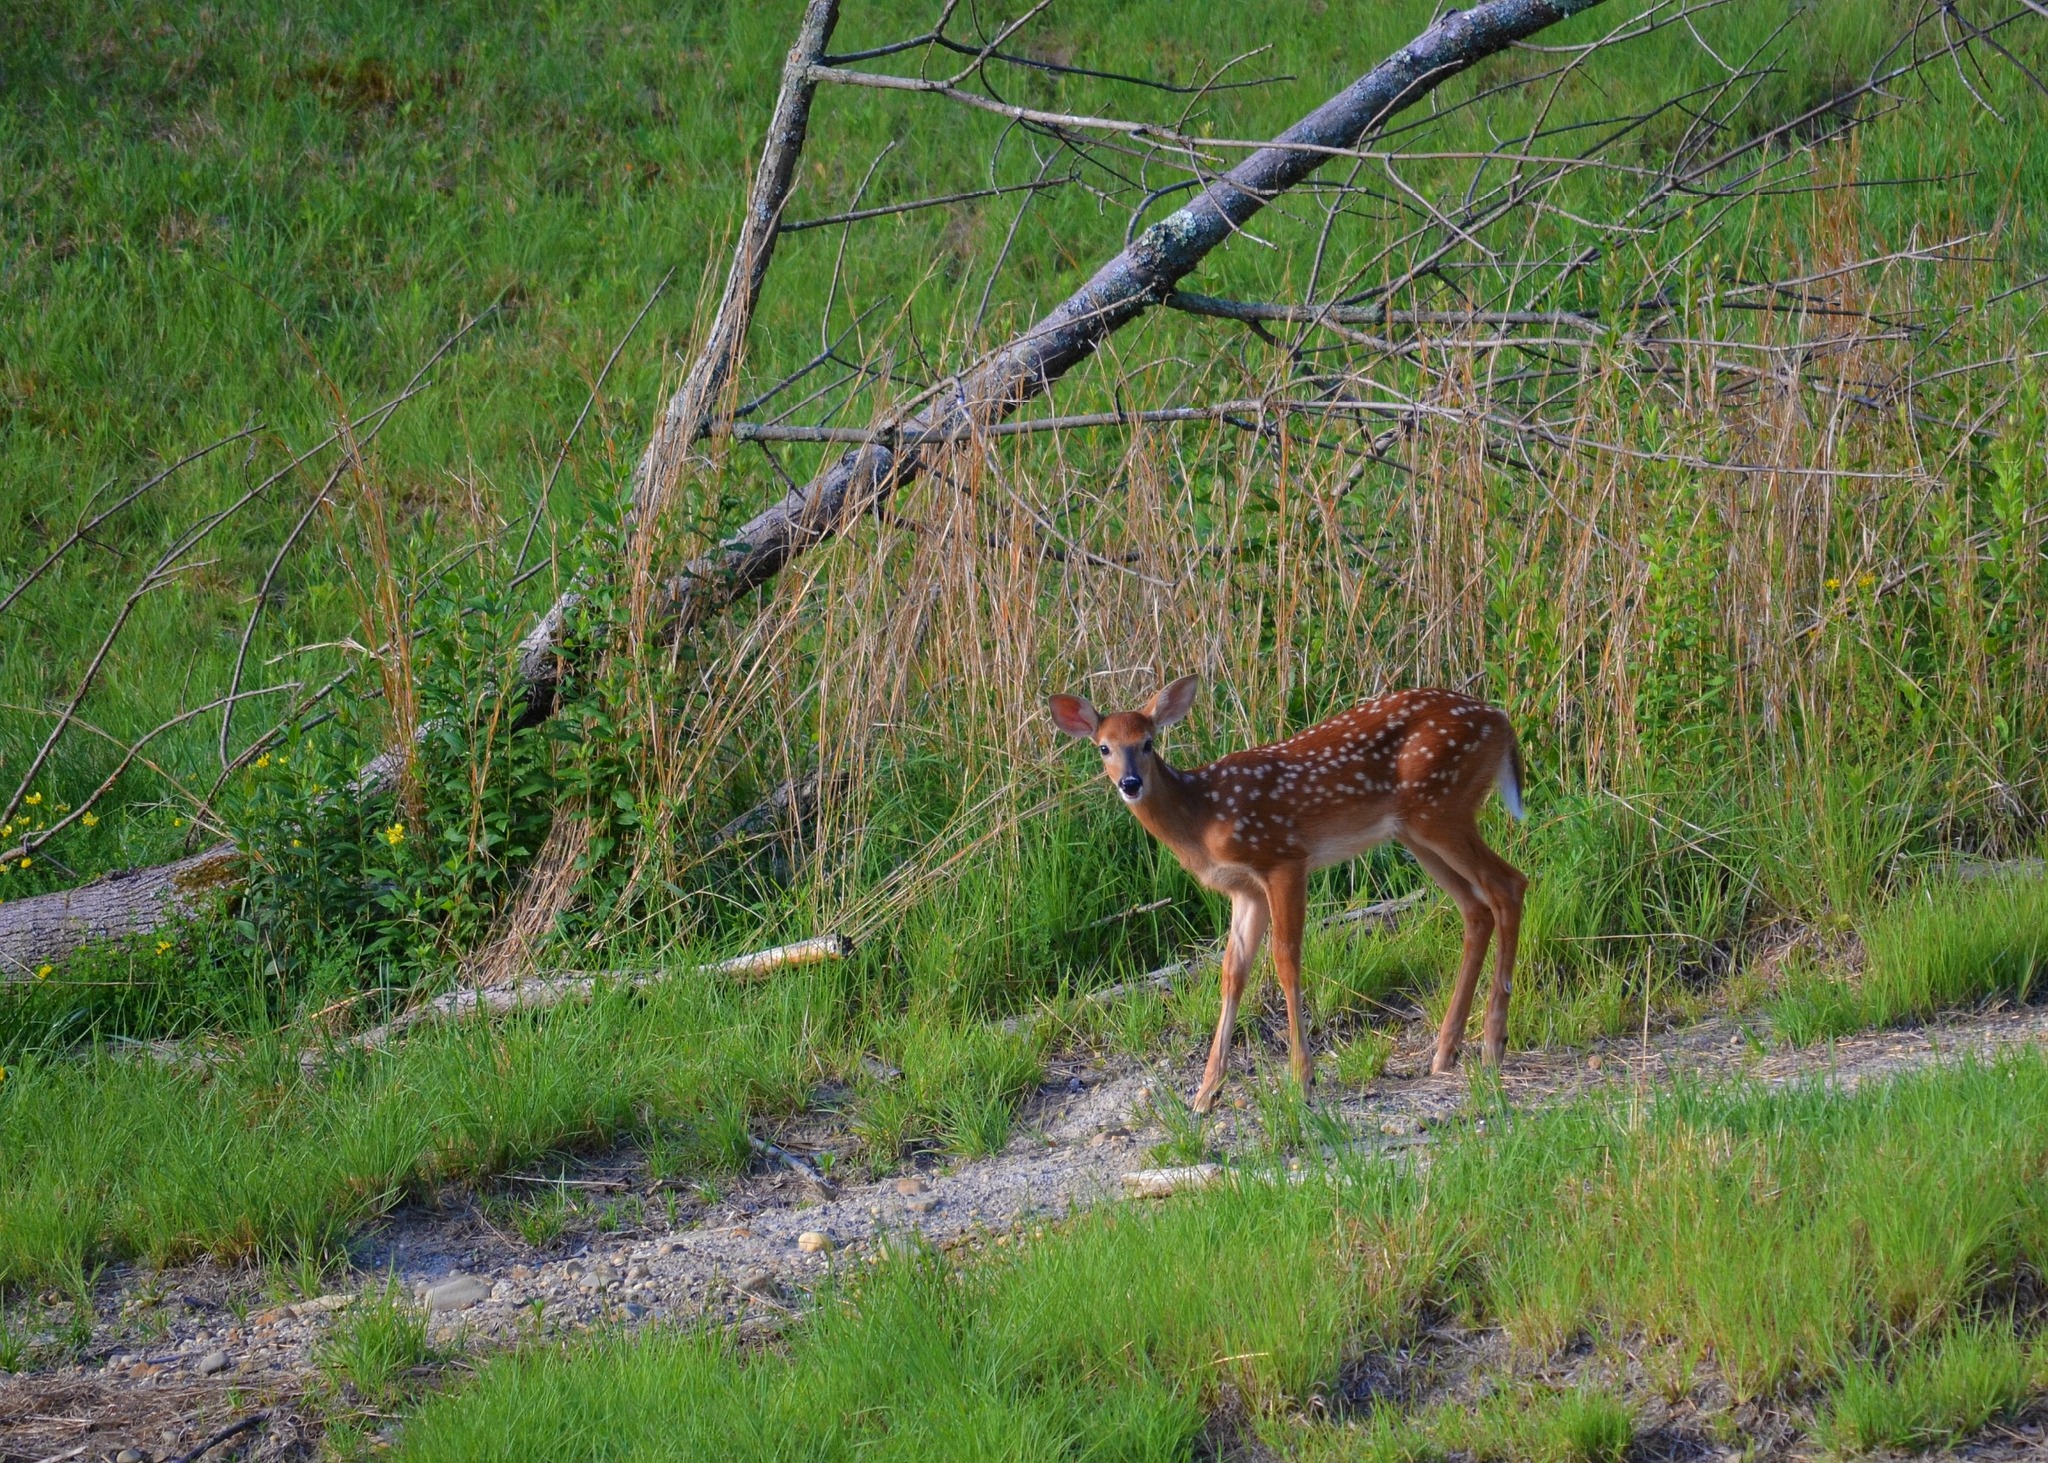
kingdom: Animalia
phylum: Chordata
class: Mammalia
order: Artiodactyla
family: Cervidae
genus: Odocoileus
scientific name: Odocoileus virginianus
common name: White-tailed deer
